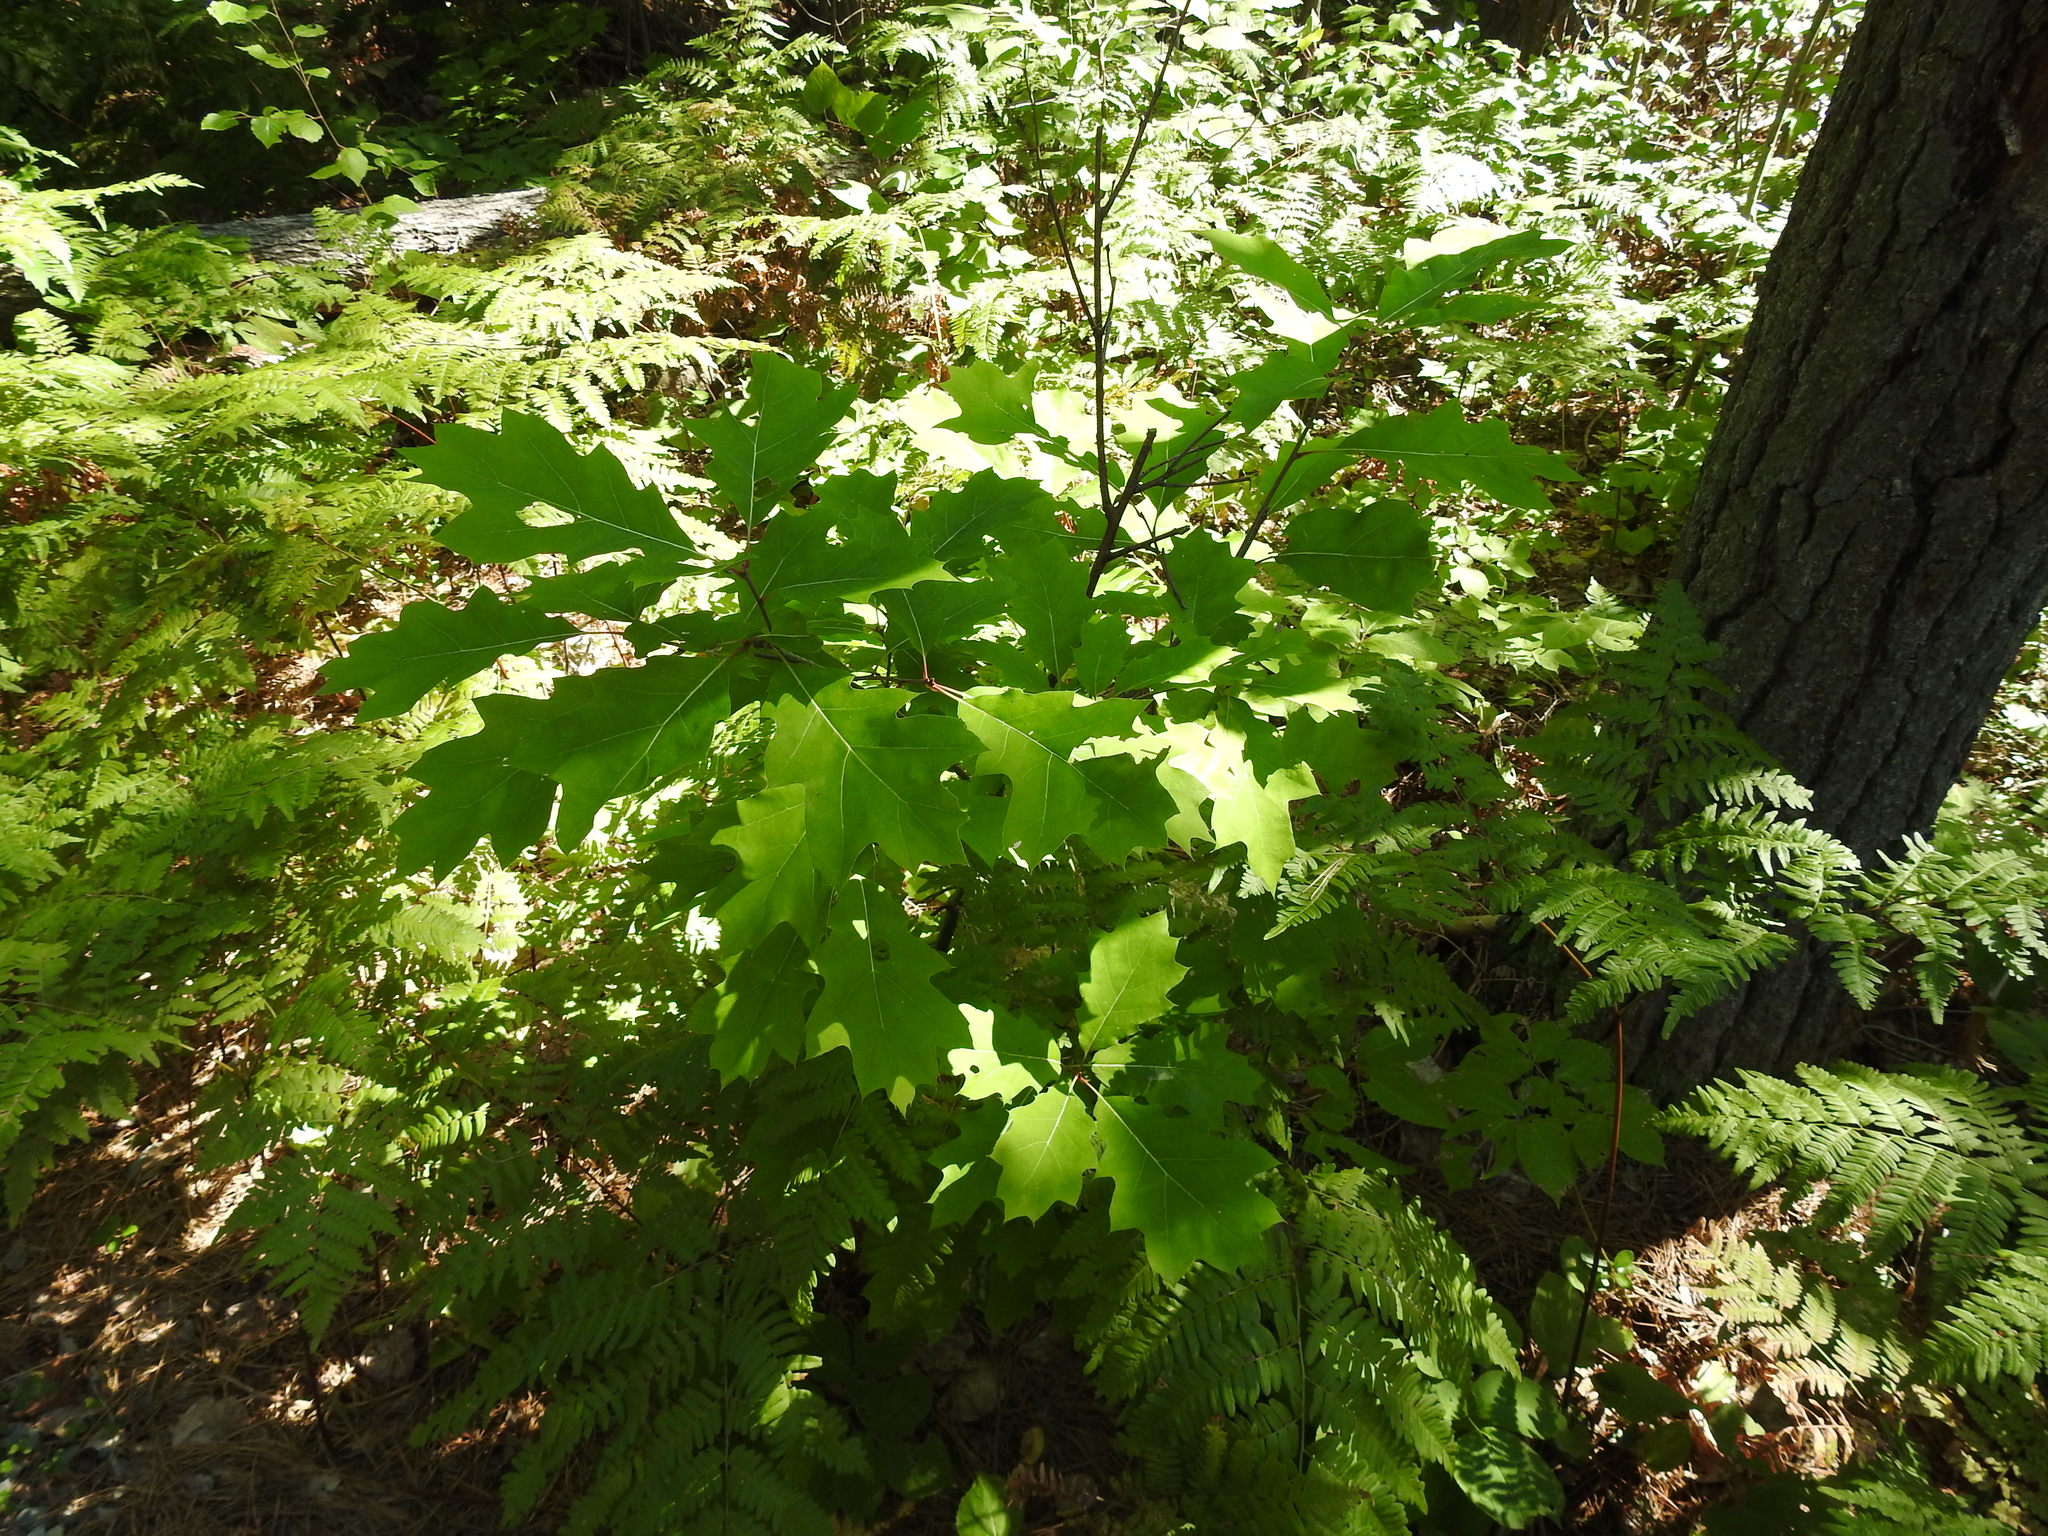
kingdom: Plantae
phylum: Tracheophyta
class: Magnoliopsida
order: Fagales
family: Fagaceae
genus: Quercus
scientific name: Quercus rubra
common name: Red oak
